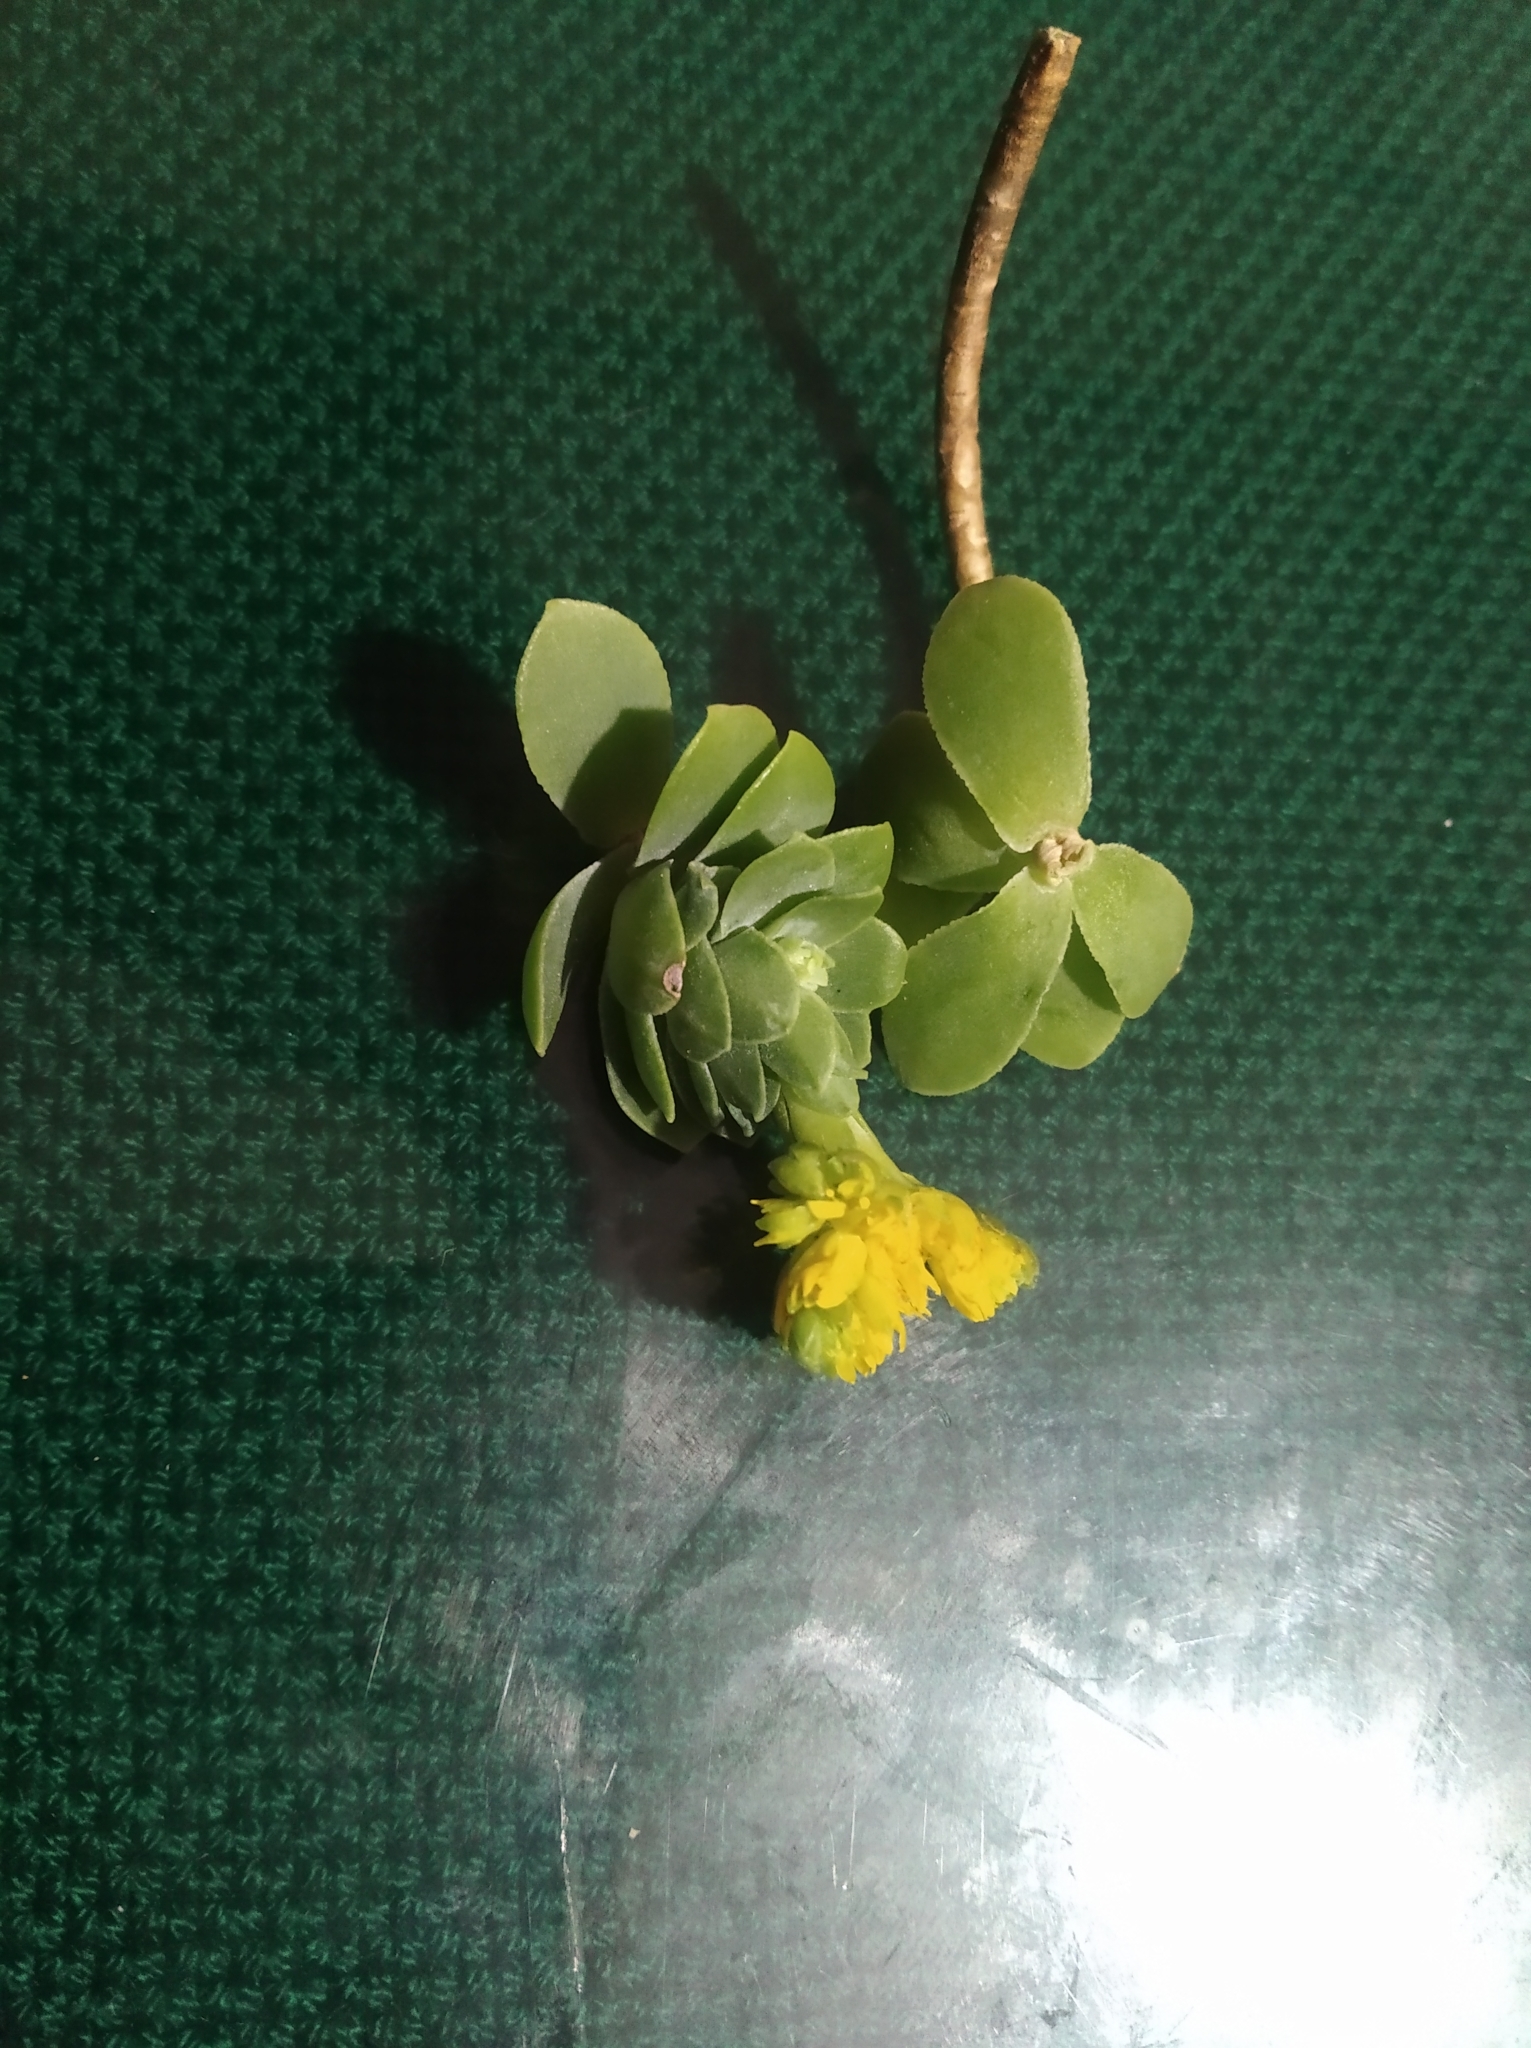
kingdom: Plantae
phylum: Tracheophyta
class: Magnoliopsida
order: Saxifragales
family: Crassulaceae
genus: Sedum
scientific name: Sedum palmeri
